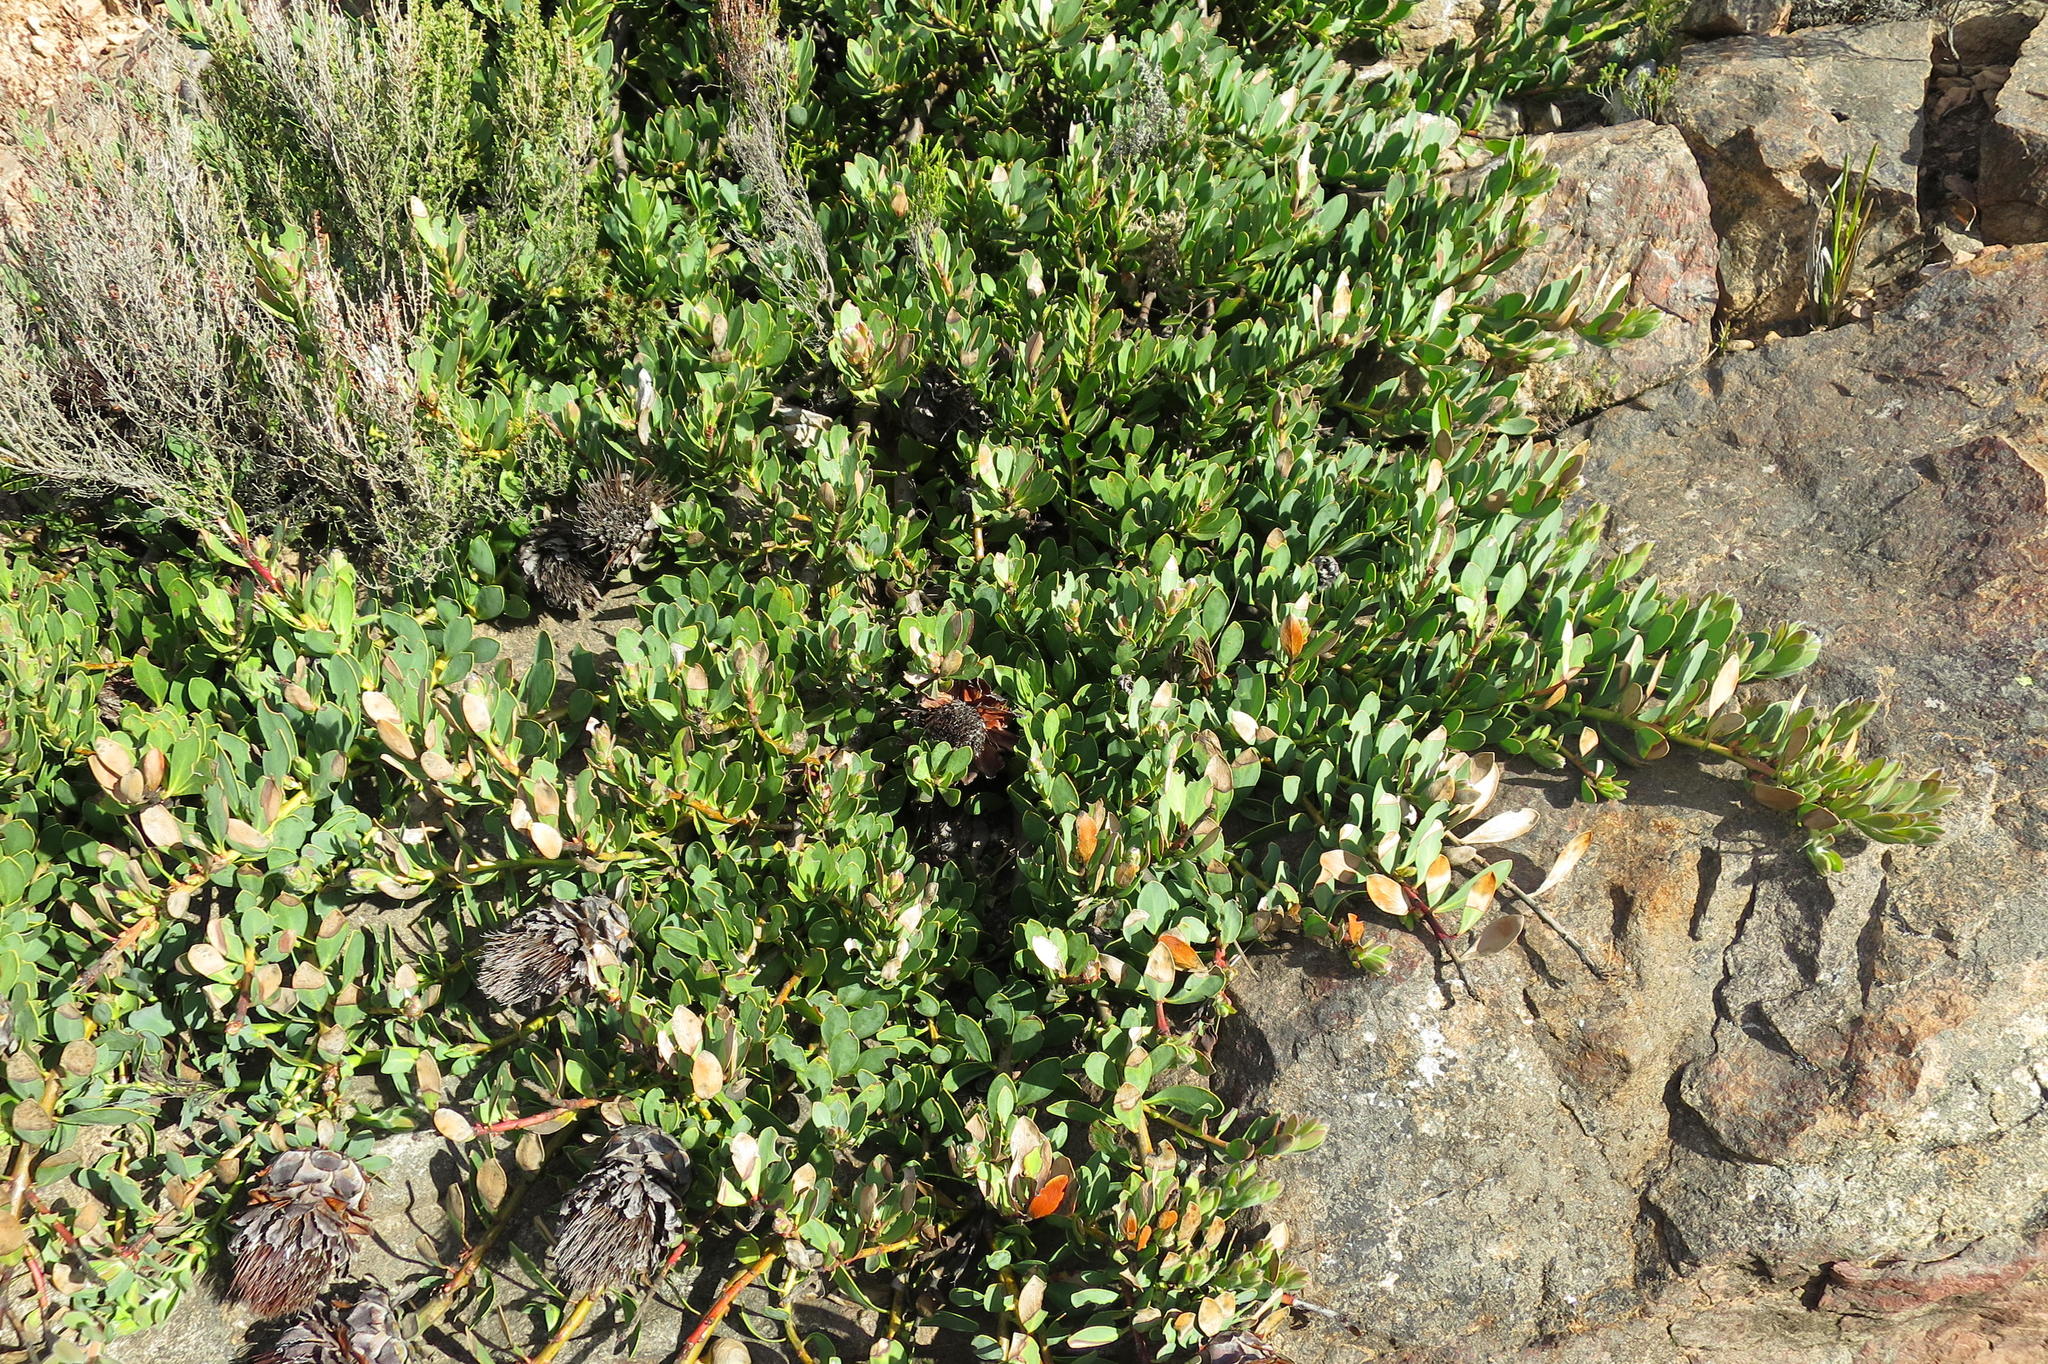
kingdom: Plantae
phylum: Tracheophyta
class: Magnoliopsida
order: Proteales
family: Proteaceae
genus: Protea
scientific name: Protea venusta
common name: Cascade sugarbush
